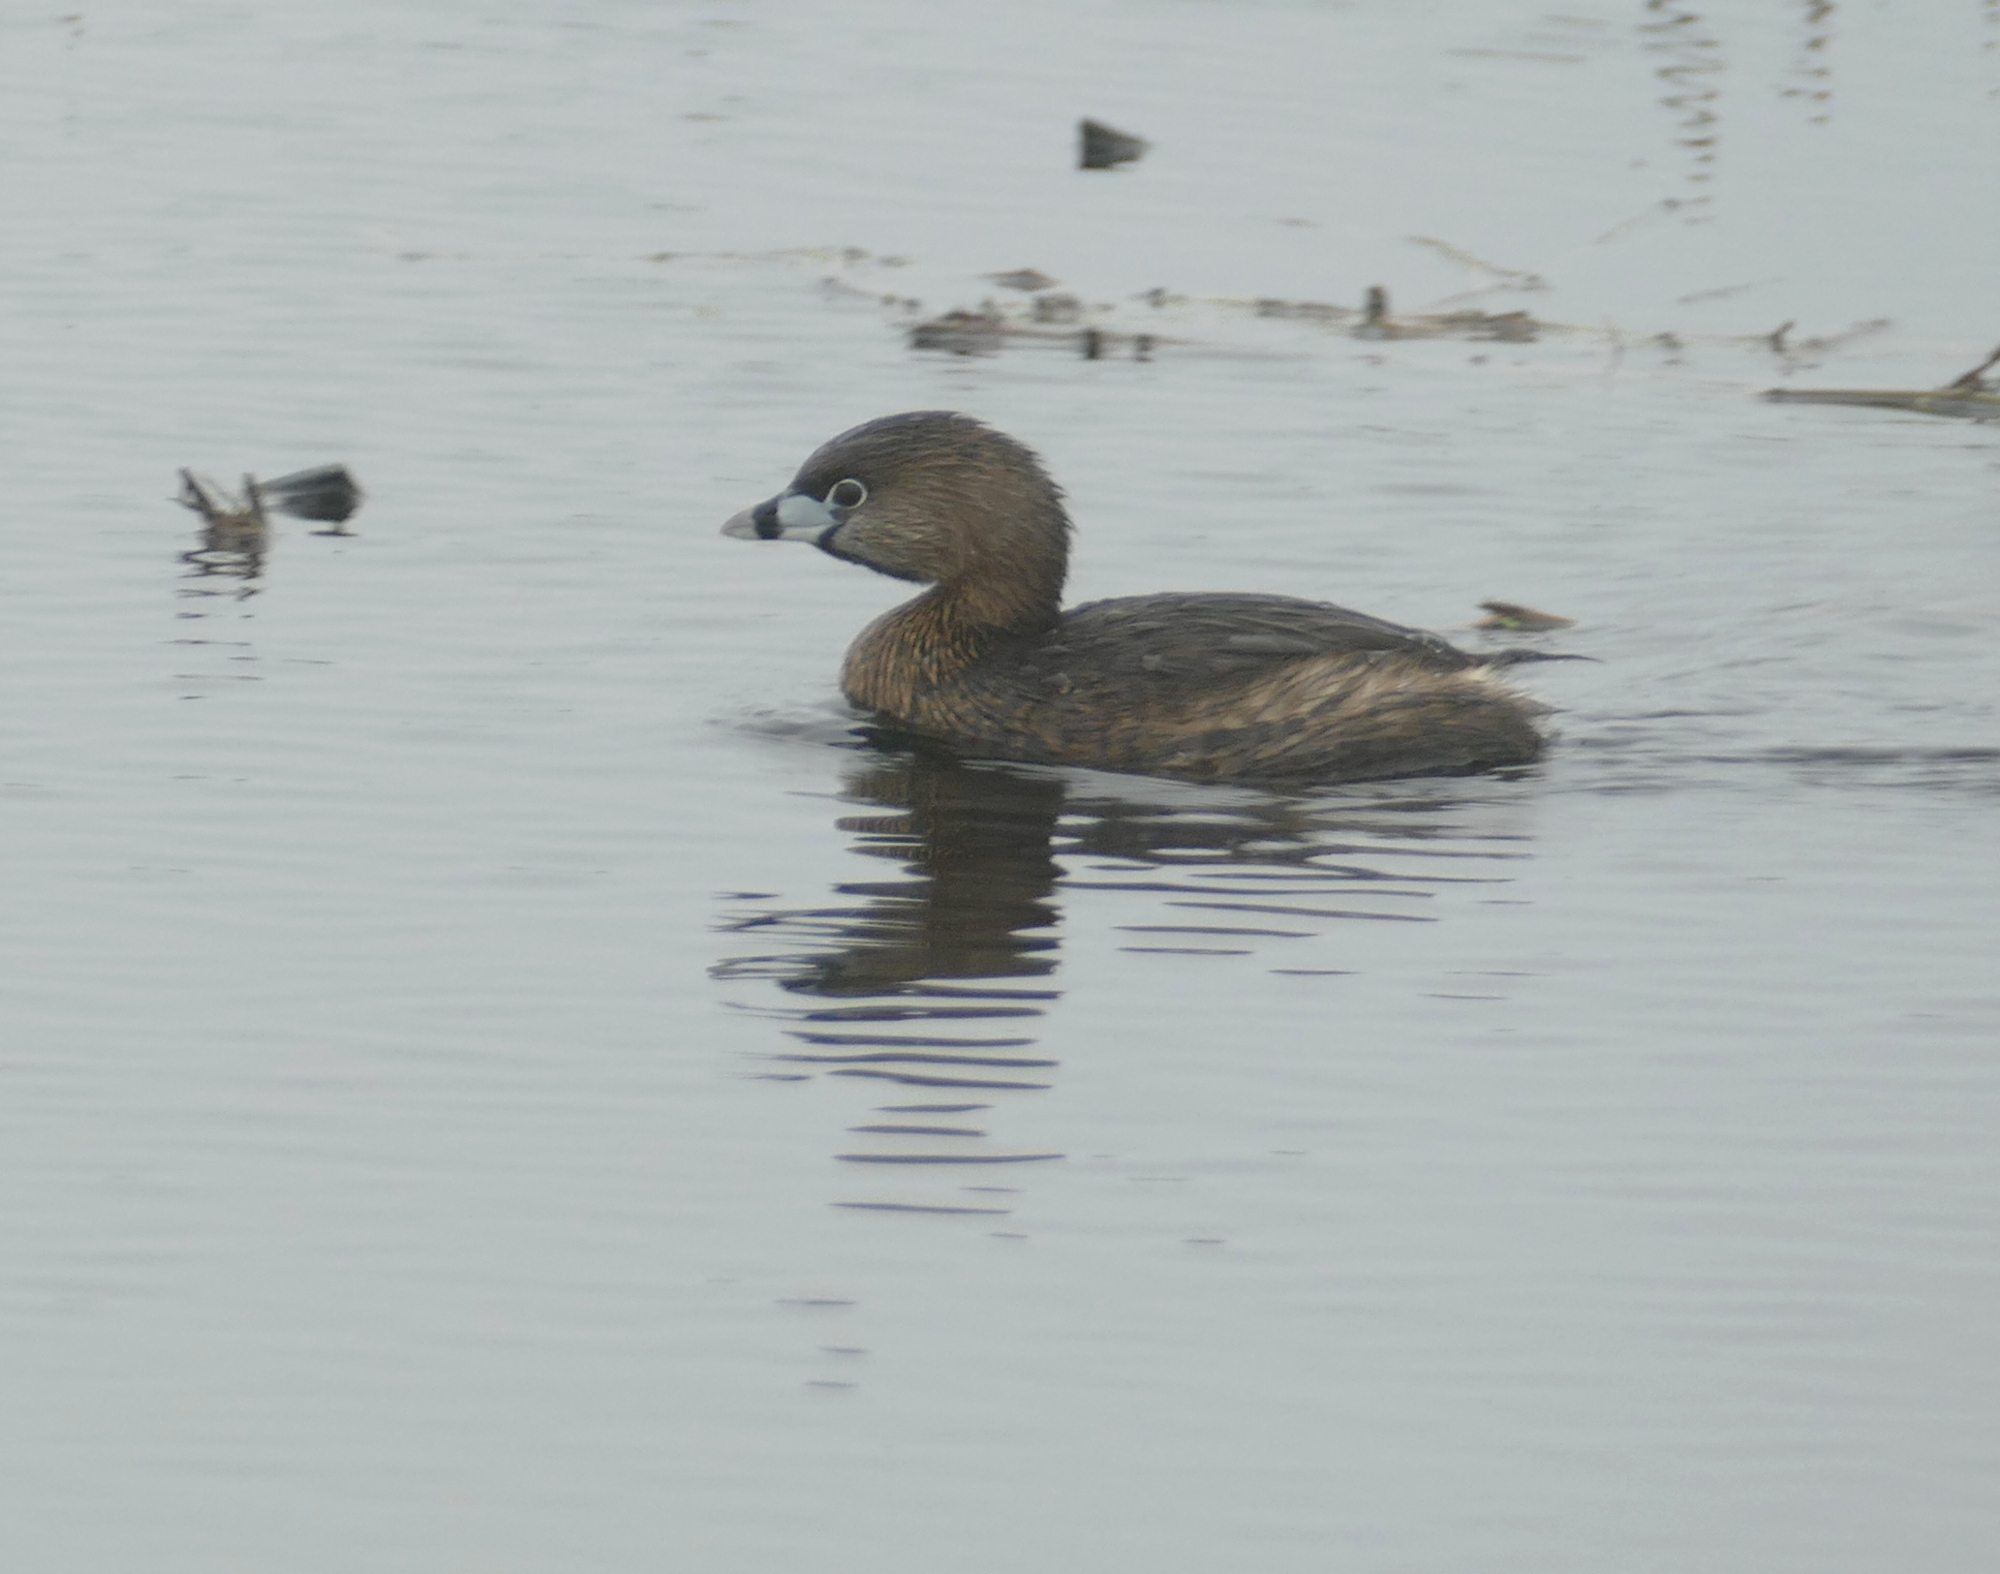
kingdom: Animalia
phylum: Chordata
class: Aves
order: Podicipediformes
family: Podicipedidae
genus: Podilymbus
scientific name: Podilymbus podiceps
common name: Pied-billed grebe
